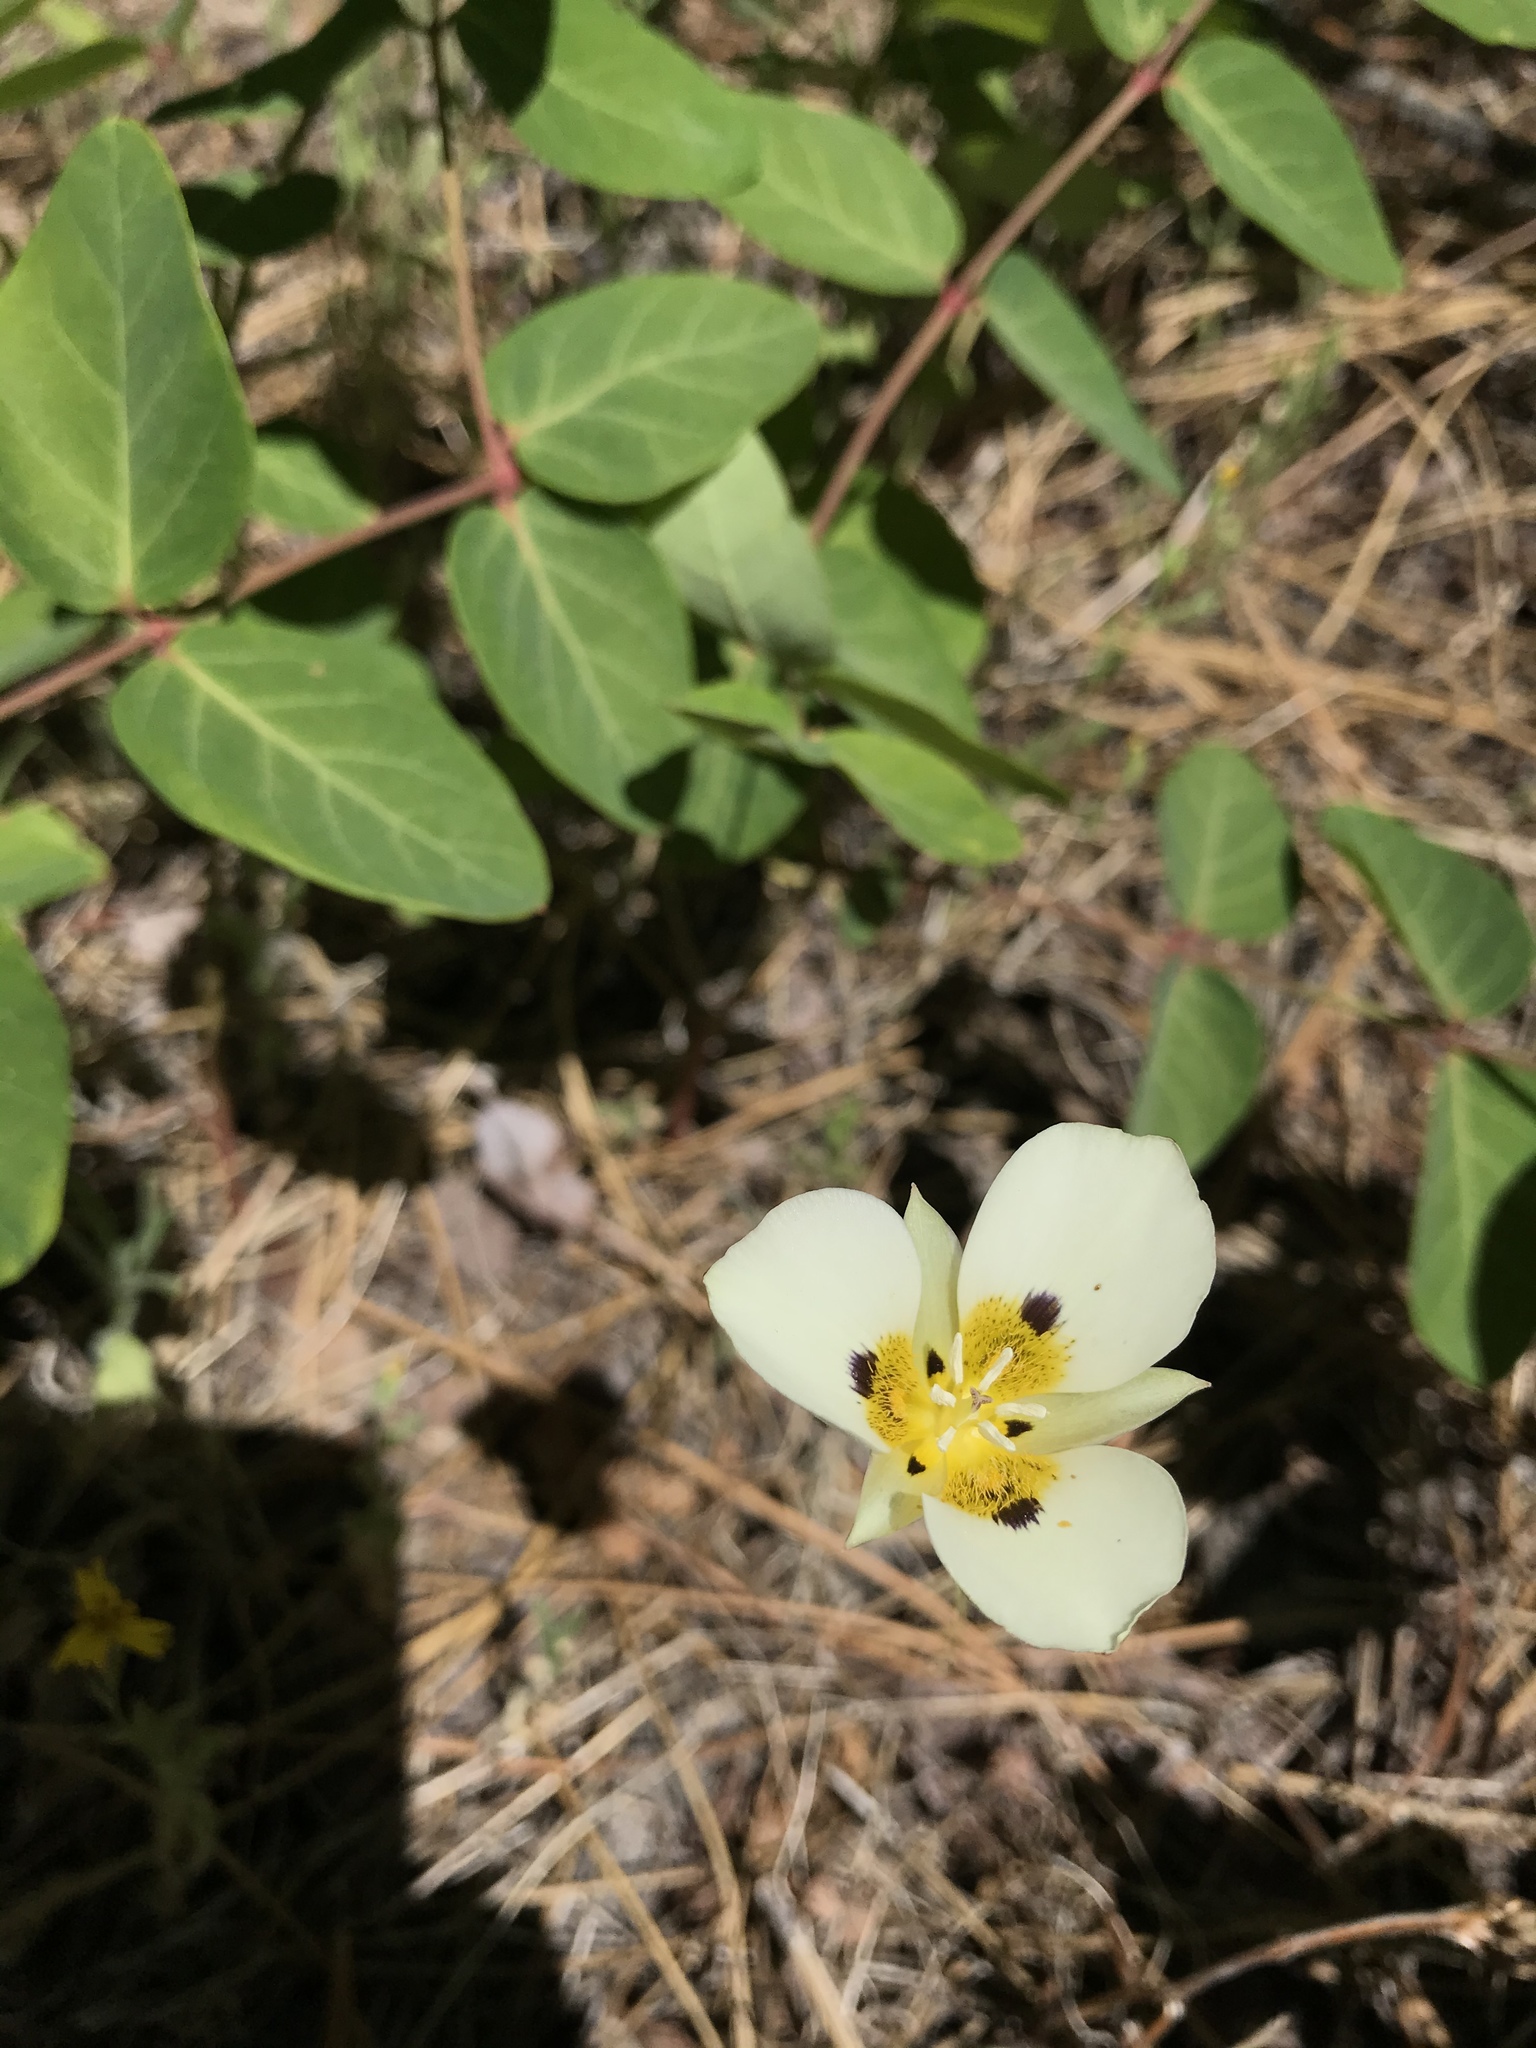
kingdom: Plantae
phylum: Tracheophyta
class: Liliopsida
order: Liliales
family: Liliaceae
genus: Calochortus
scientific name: Calochortus leichtlinii
